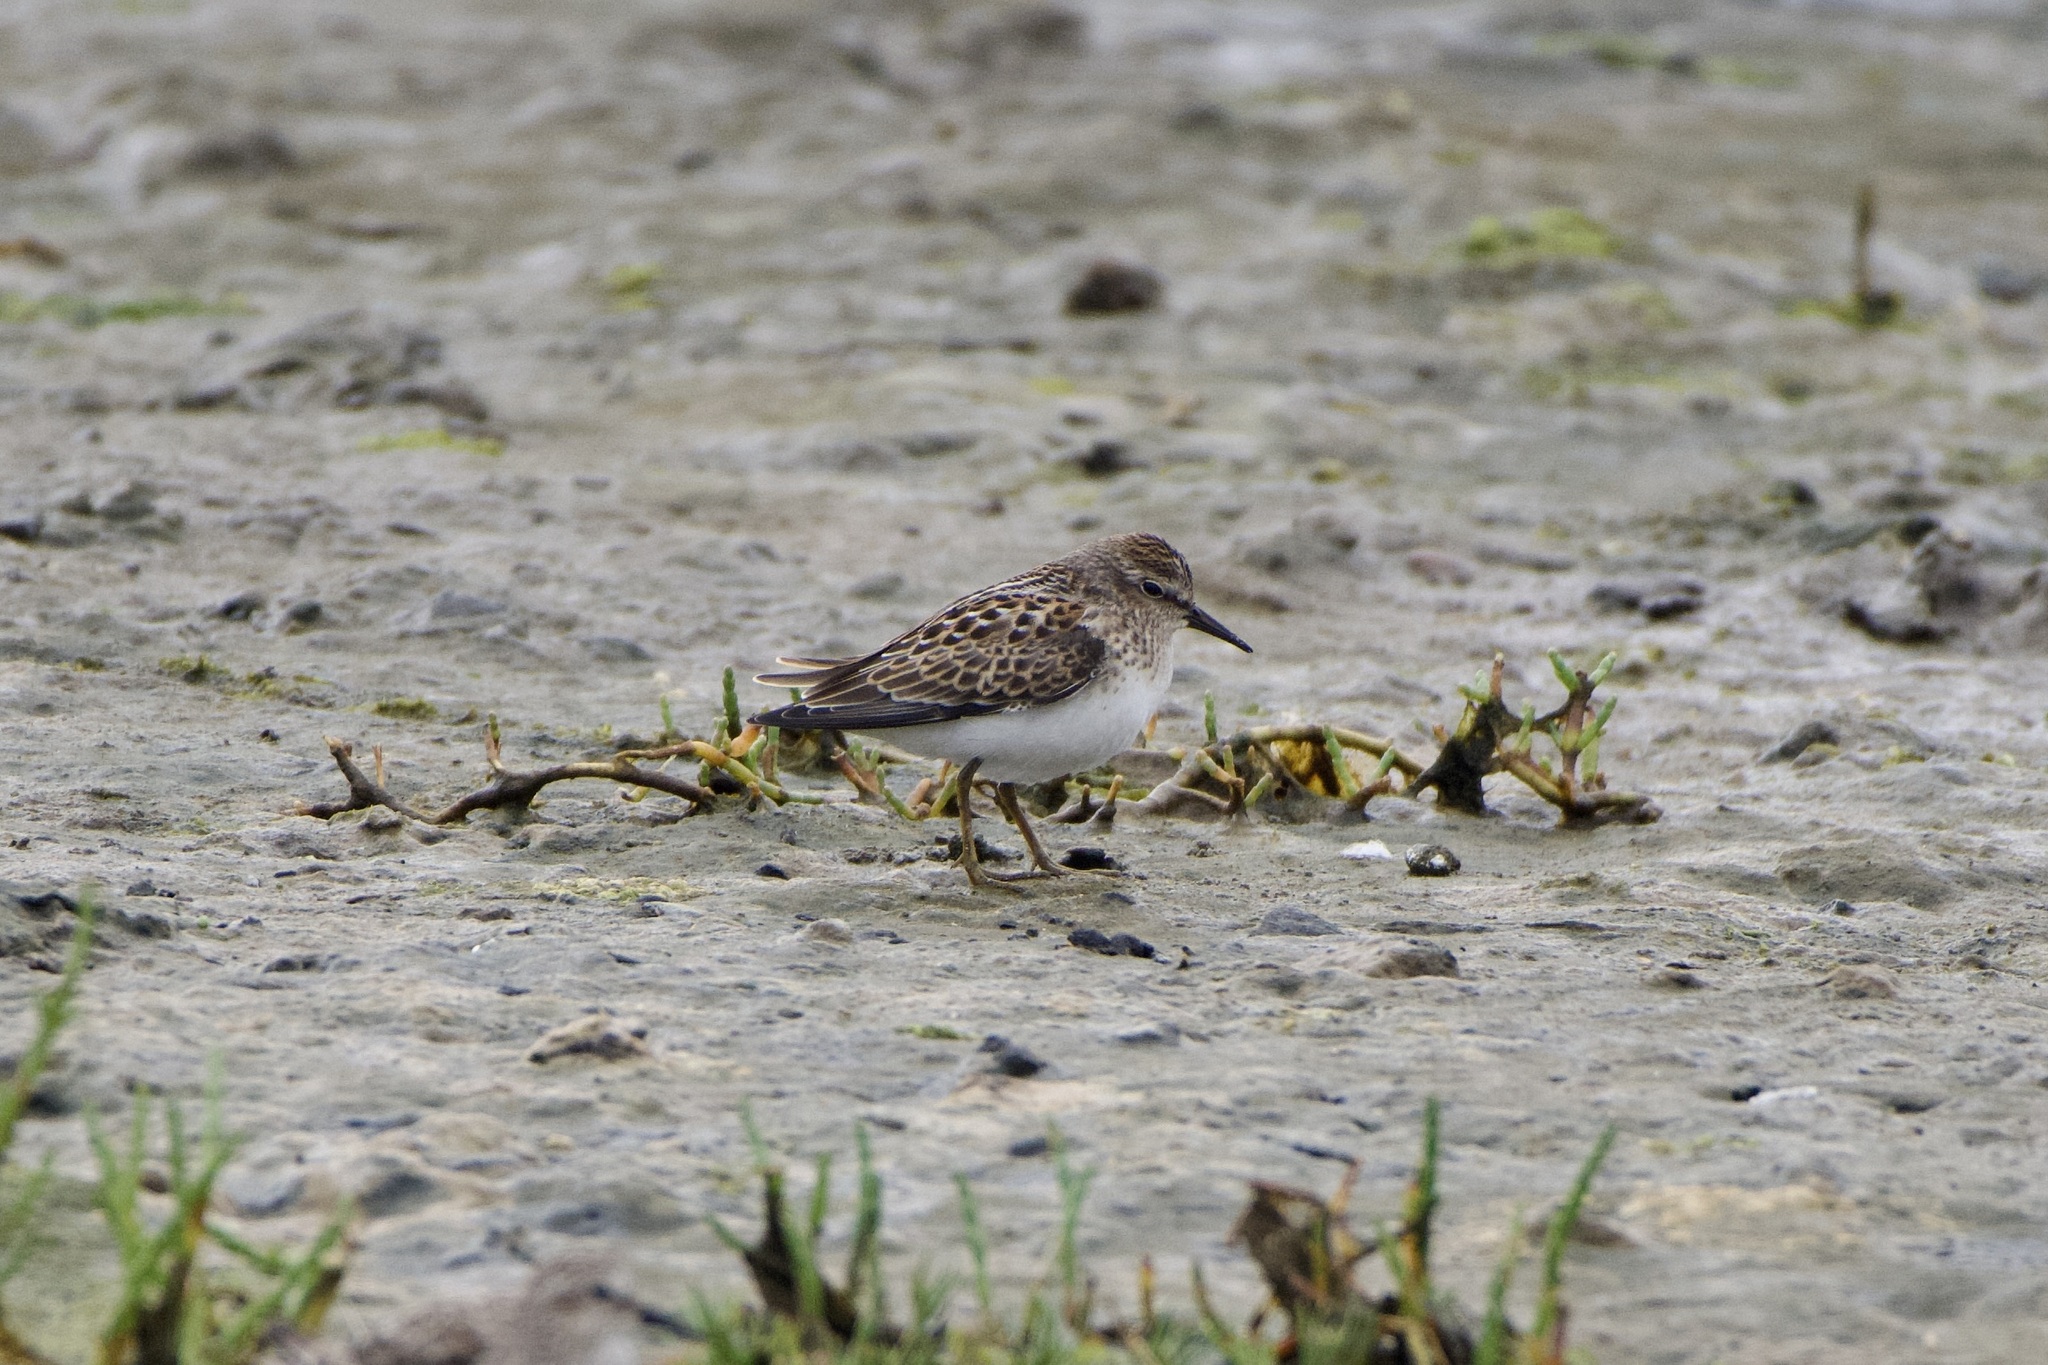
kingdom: Animalia
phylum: Chordata
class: Aves
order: Charadriiformes
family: Scolopacidae
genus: Calidris
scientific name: Calidris minutilla
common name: Least sandpiper
